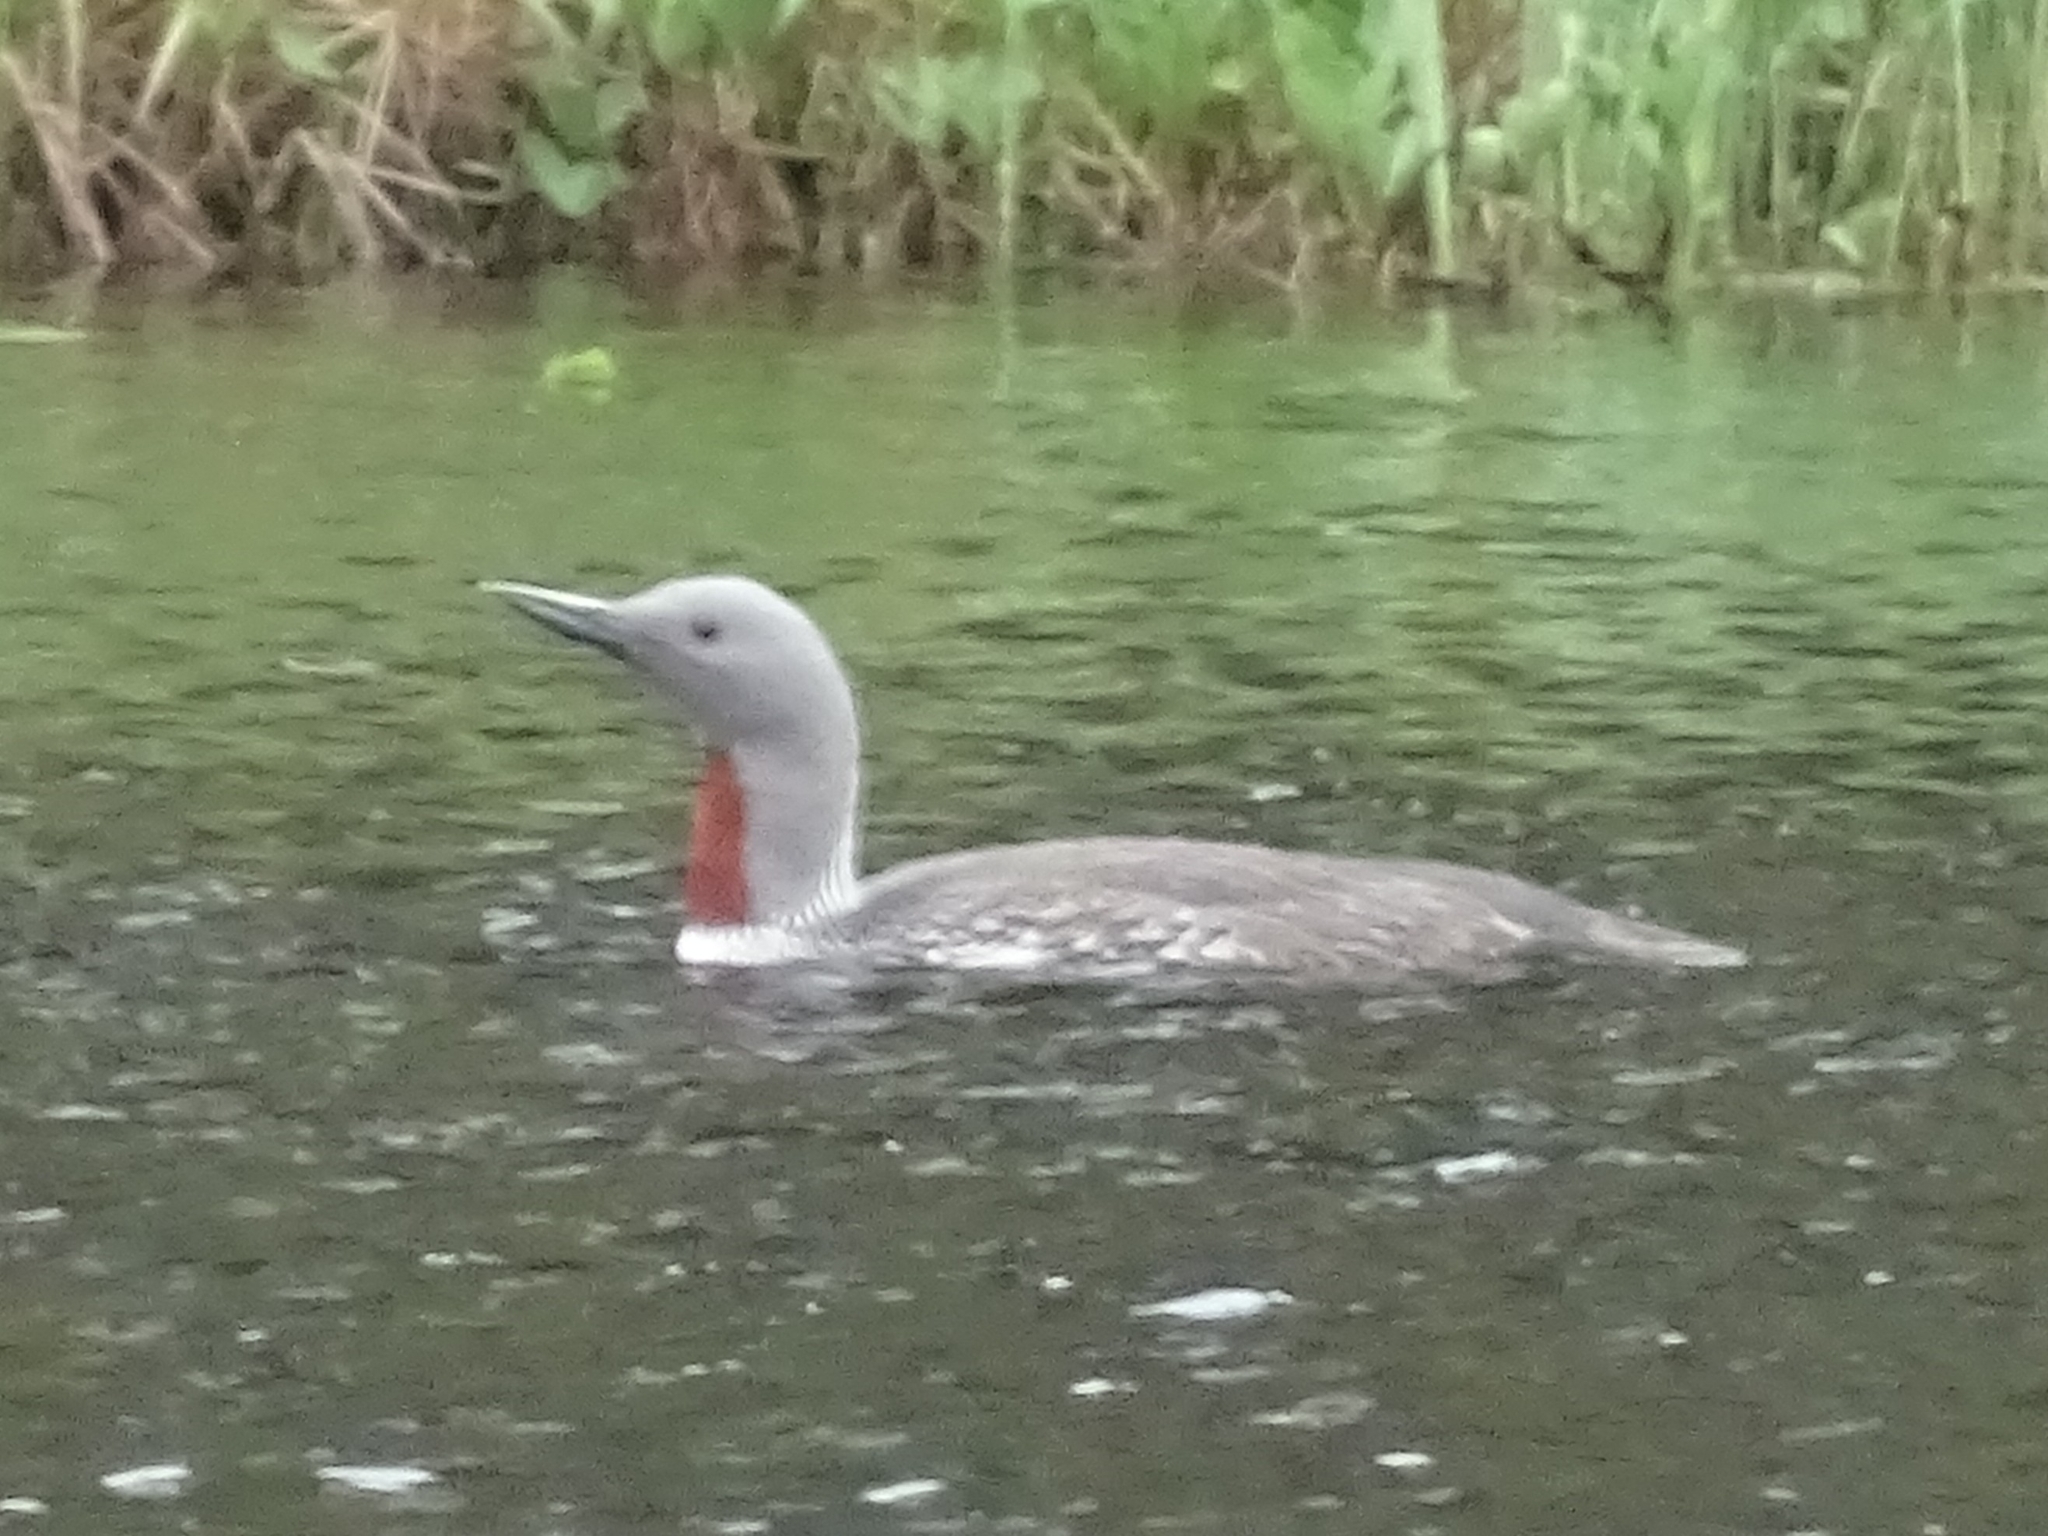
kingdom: Animalia
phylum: Chordata
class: Aves
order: Gaviiformes
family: Gaviidae
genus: Gavia
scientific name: Gavia stellata
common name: Red-throated loon
